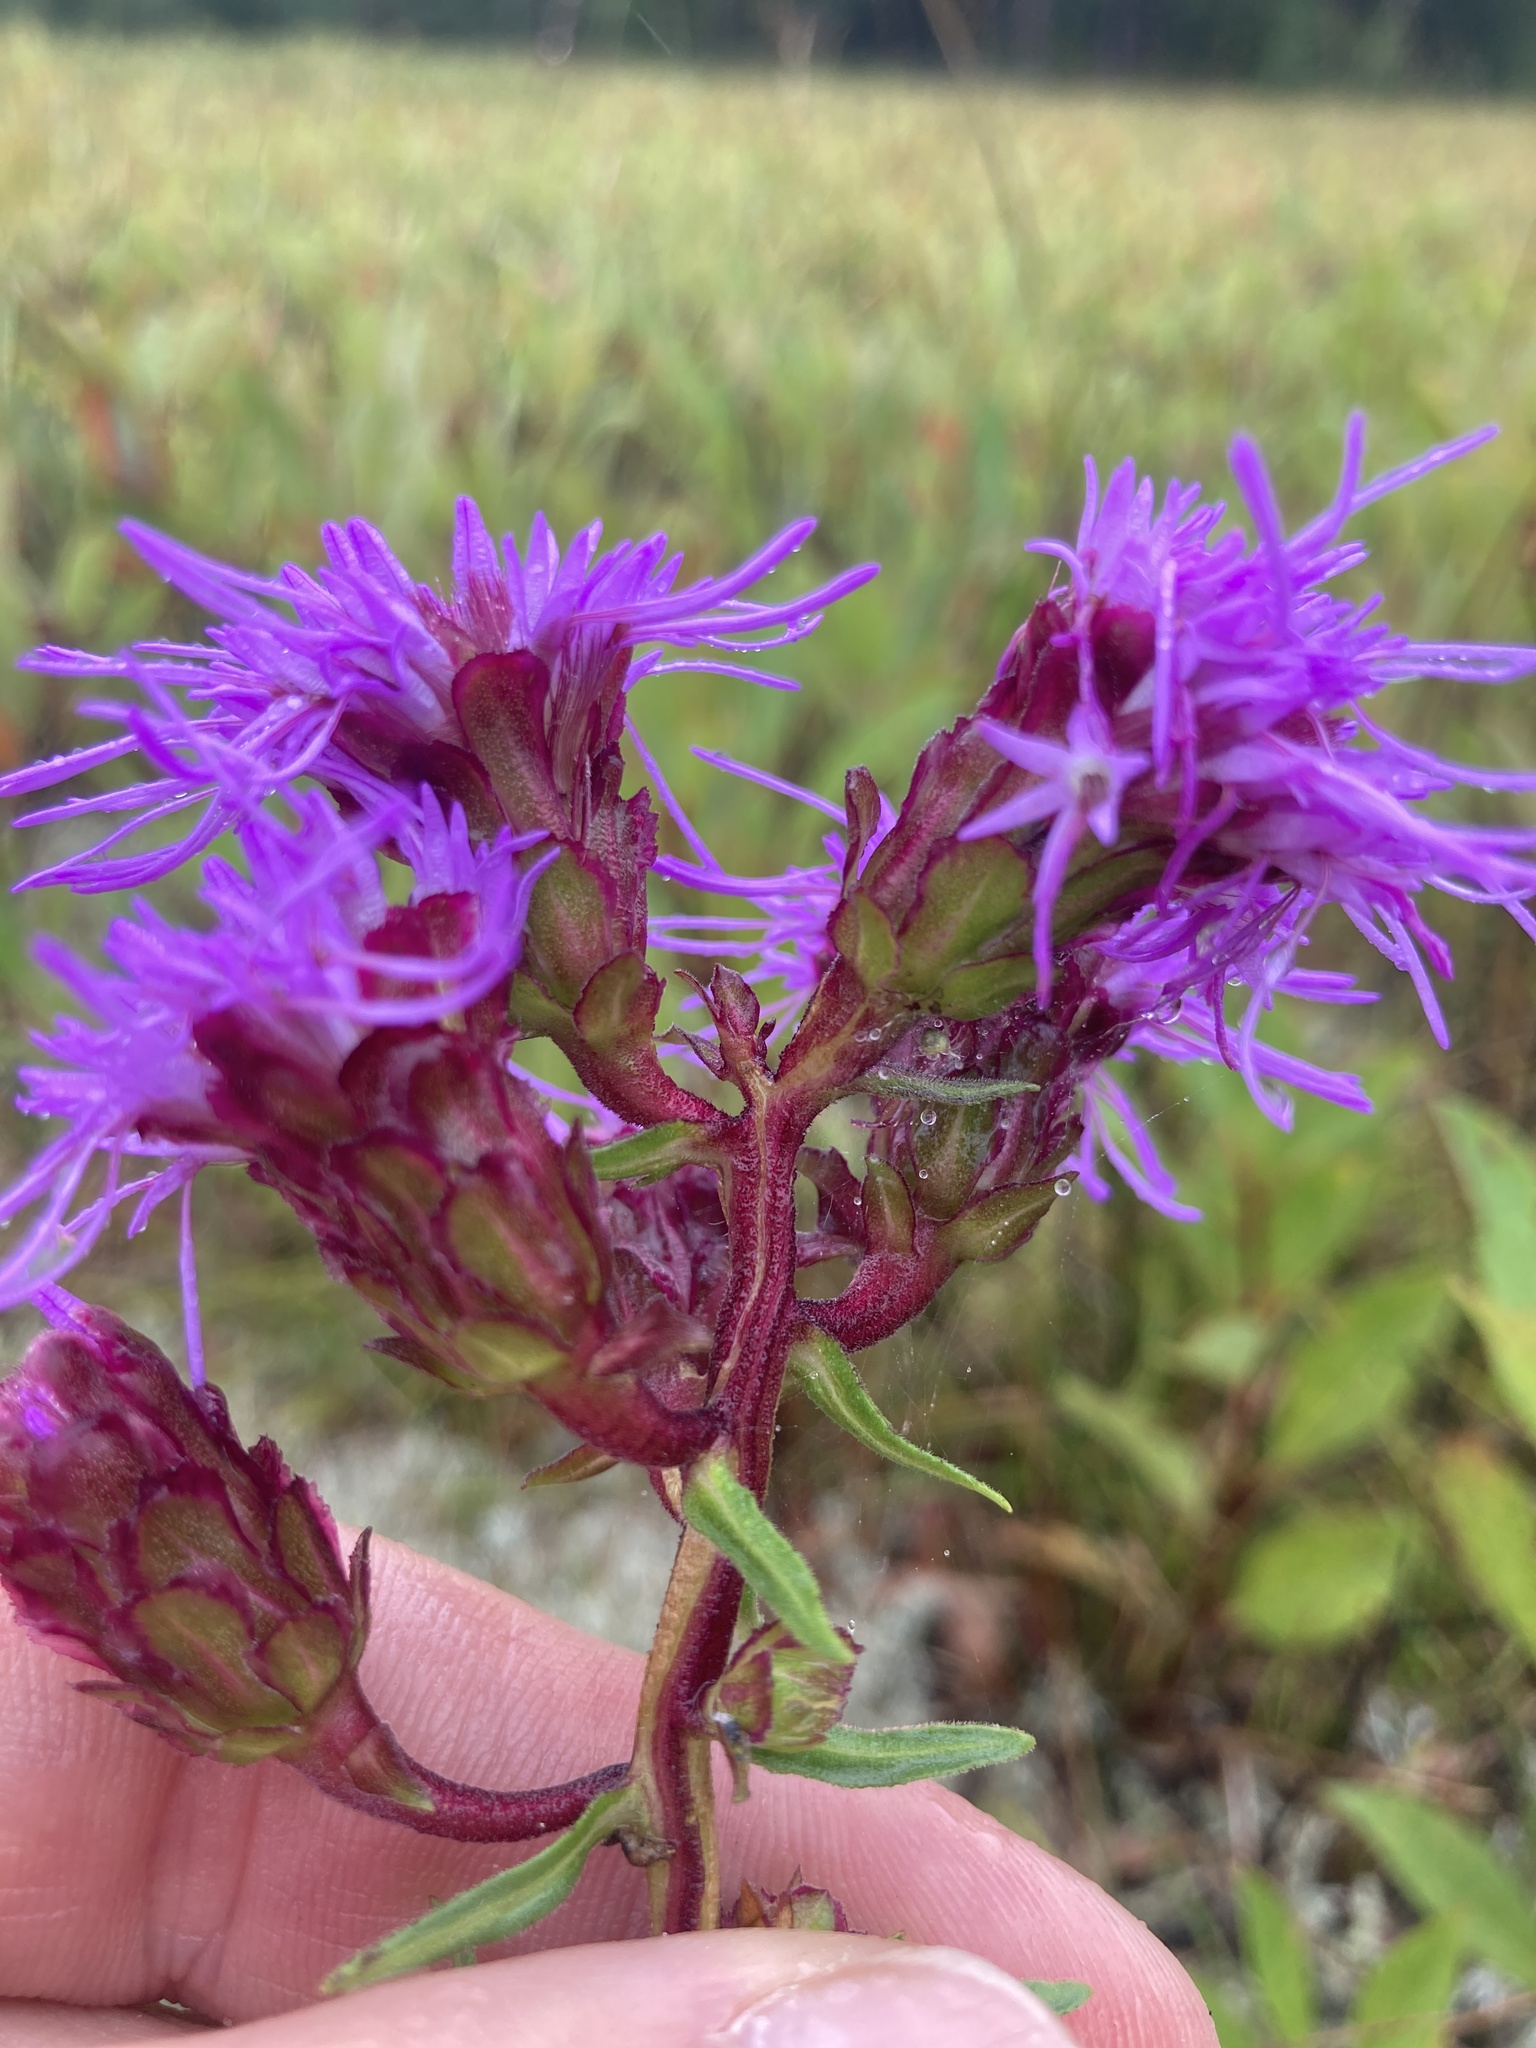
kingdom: Plantae
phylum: Tracheophyta
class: Magnoliopsida
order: Asterales
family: Asteraceae
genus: Liatris
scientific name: Liatris scariosa
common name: Northern gayfeather
